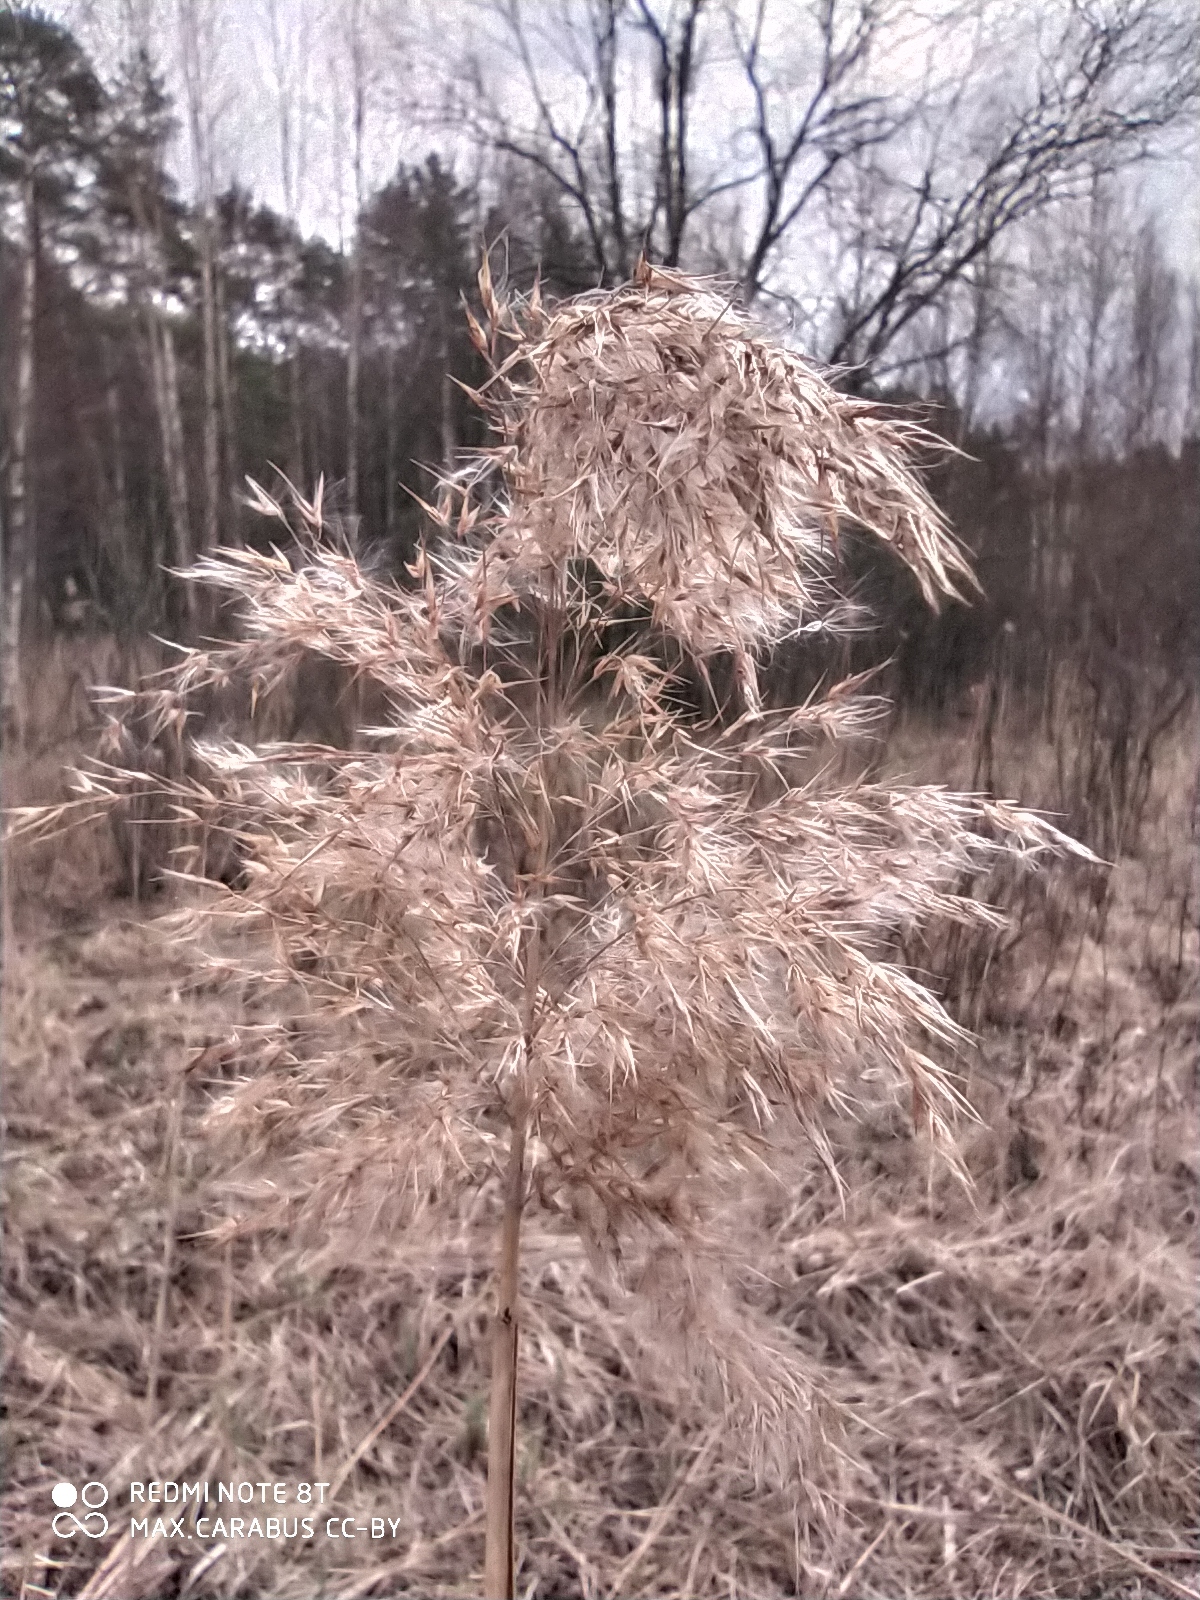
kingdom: Plantae
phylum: Tracheophyta
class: Liliopsida
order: Poales
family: Poaceae
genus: Calamagrostis
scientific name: Calamagrostis epigejos
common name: Wood small-reed
